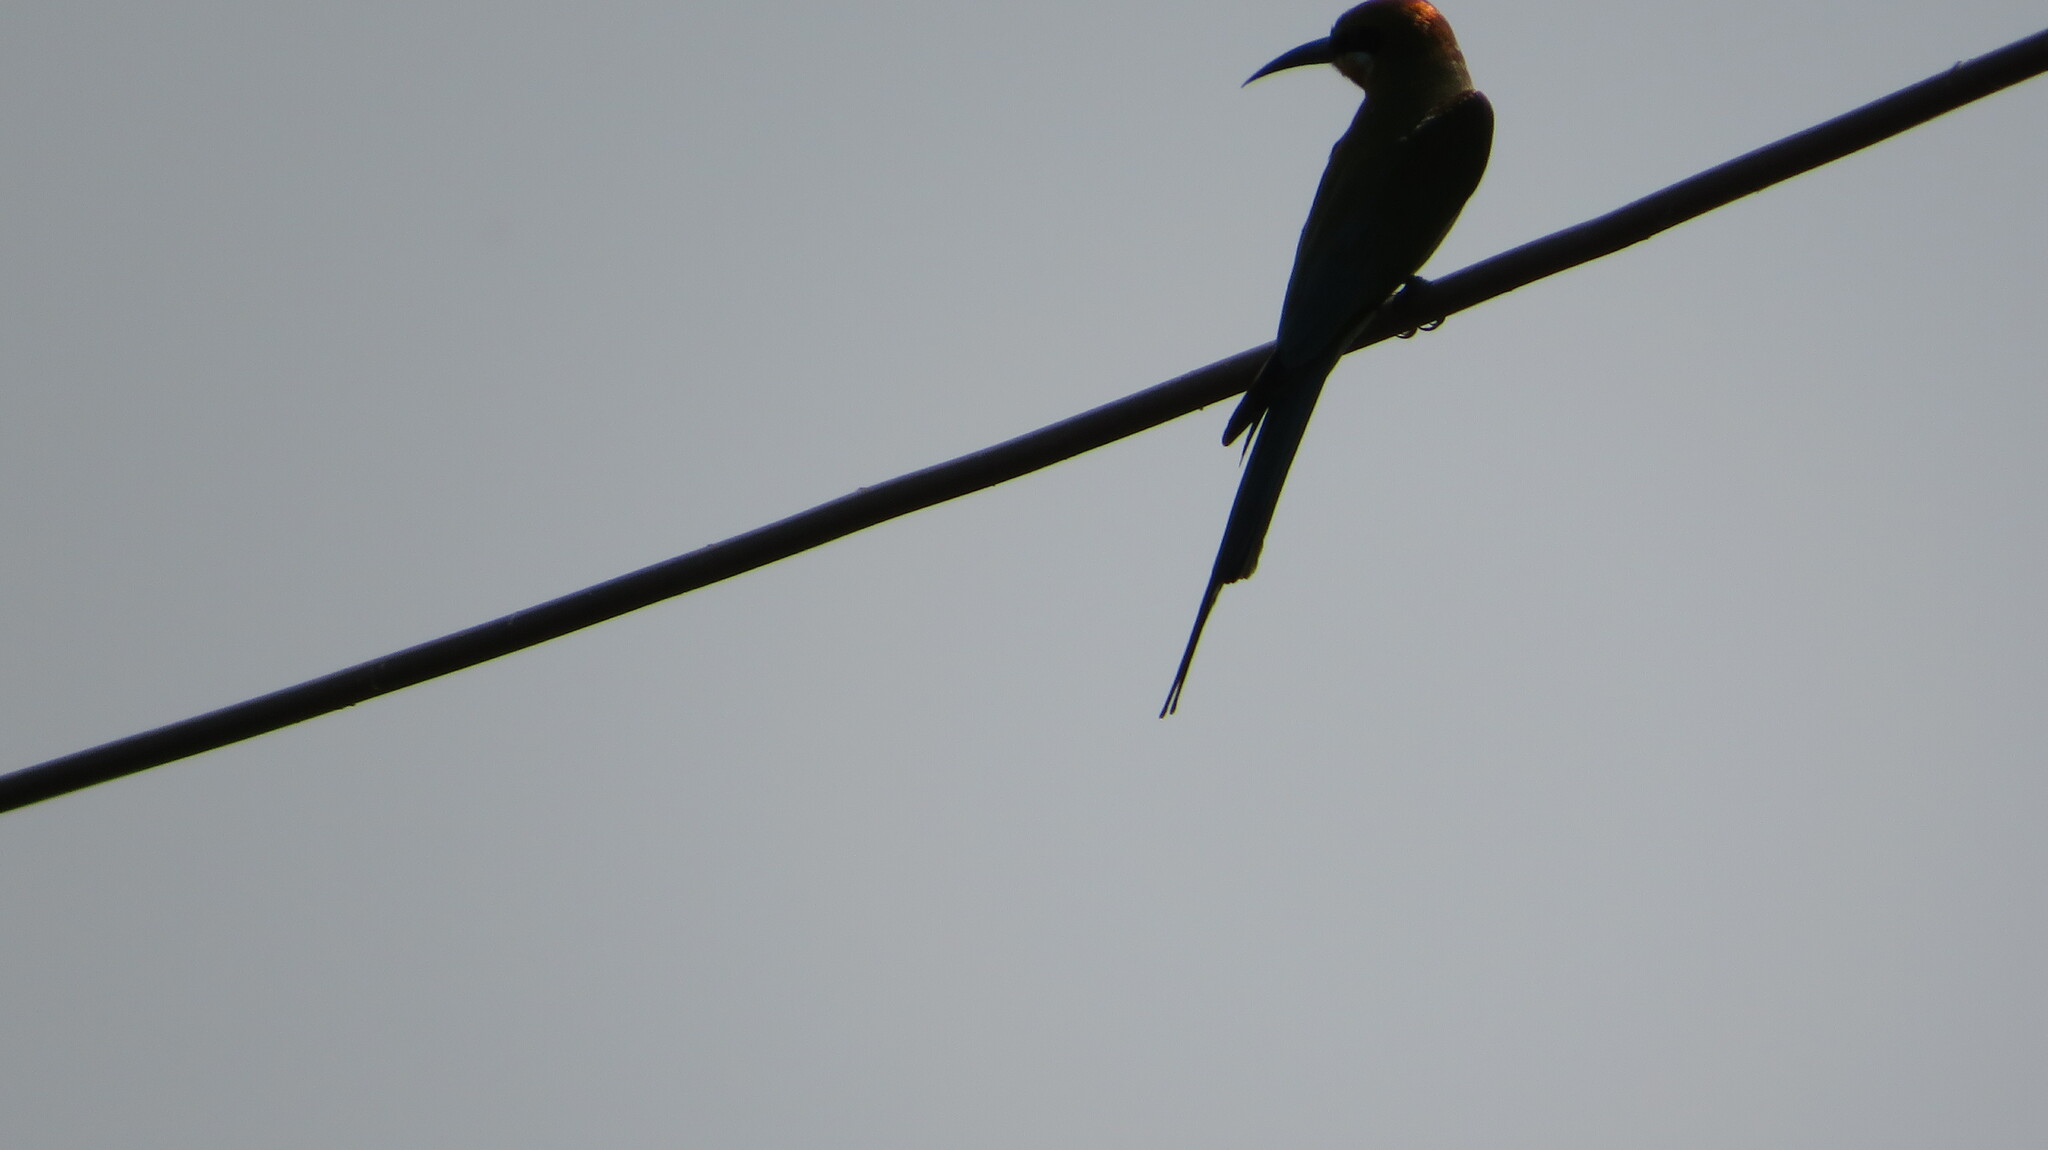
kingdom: Animalia
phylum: Chordata
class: Aves
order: Coraciiformes
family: Meropidae
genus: Merops
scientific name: Merops philippinus
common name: Blue-tailed bee-eater
